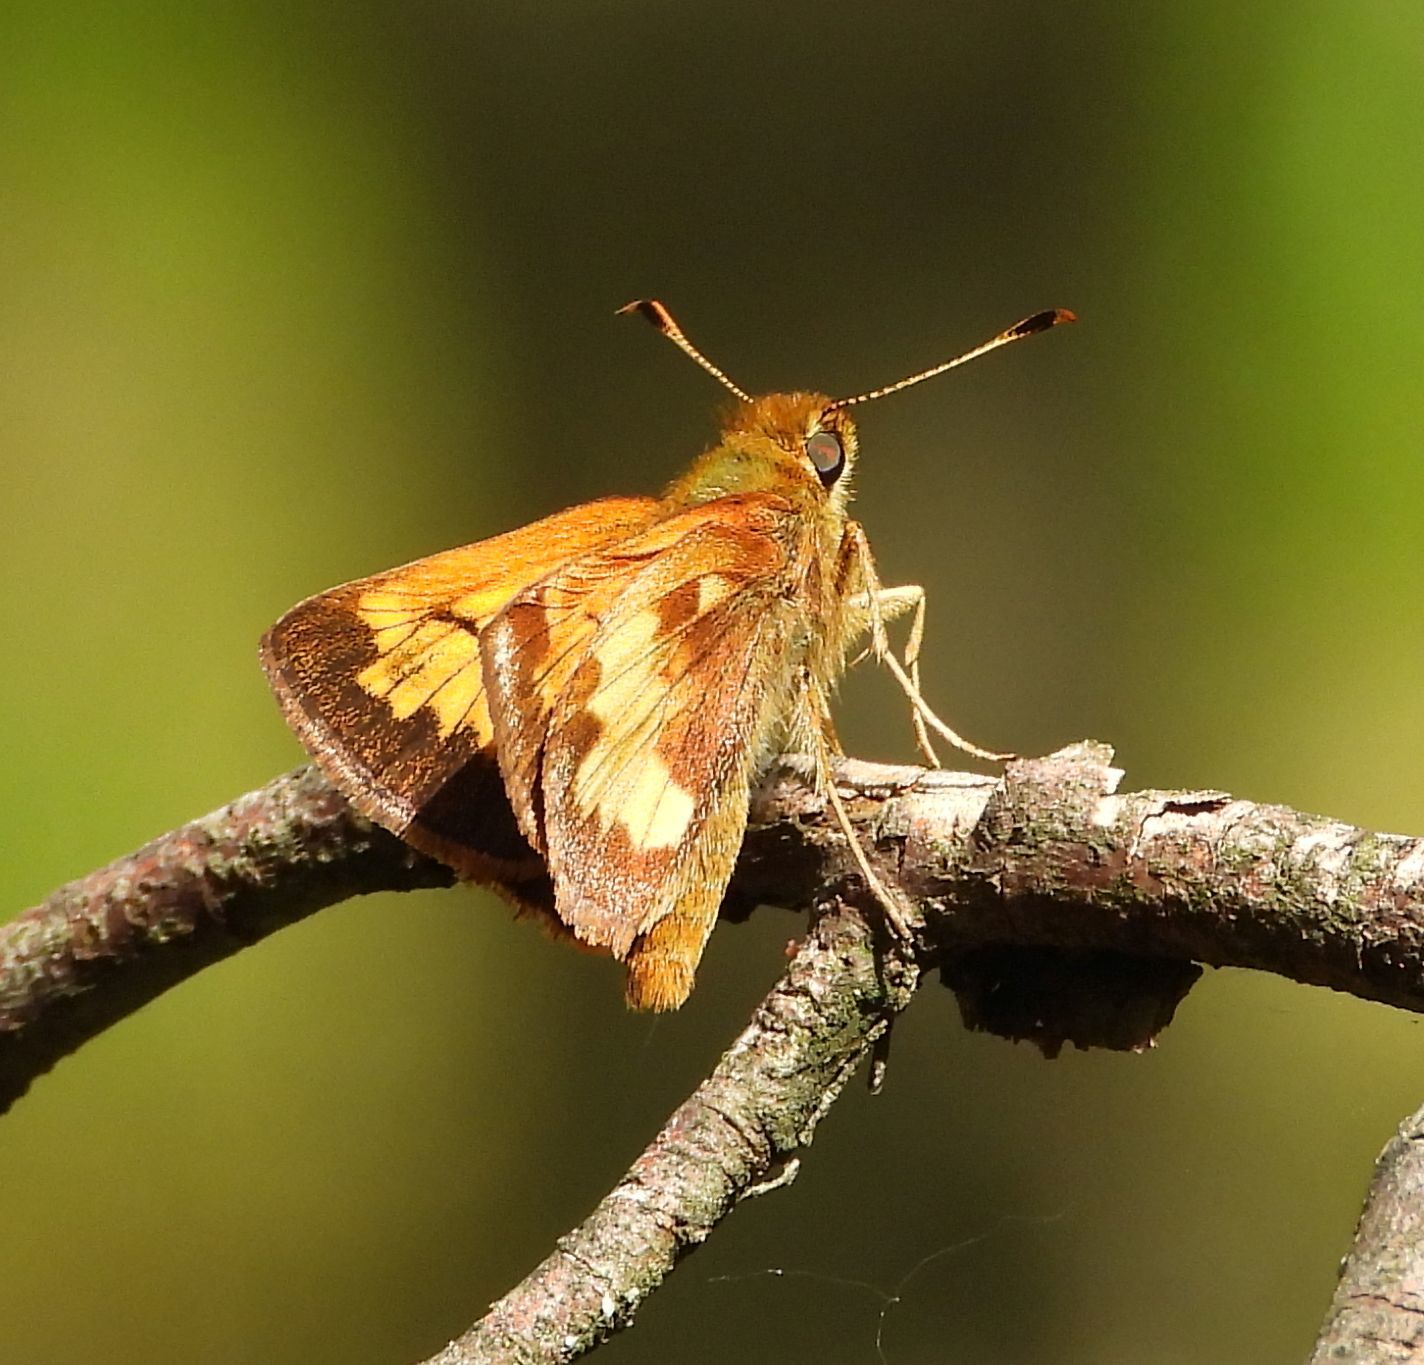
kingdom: Animalia
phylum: Arthropoda
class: Insecta
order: Lepidoptera
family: Hesperiidae
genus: Lon
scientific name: Lon hobomok
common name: Hobomok skipper
